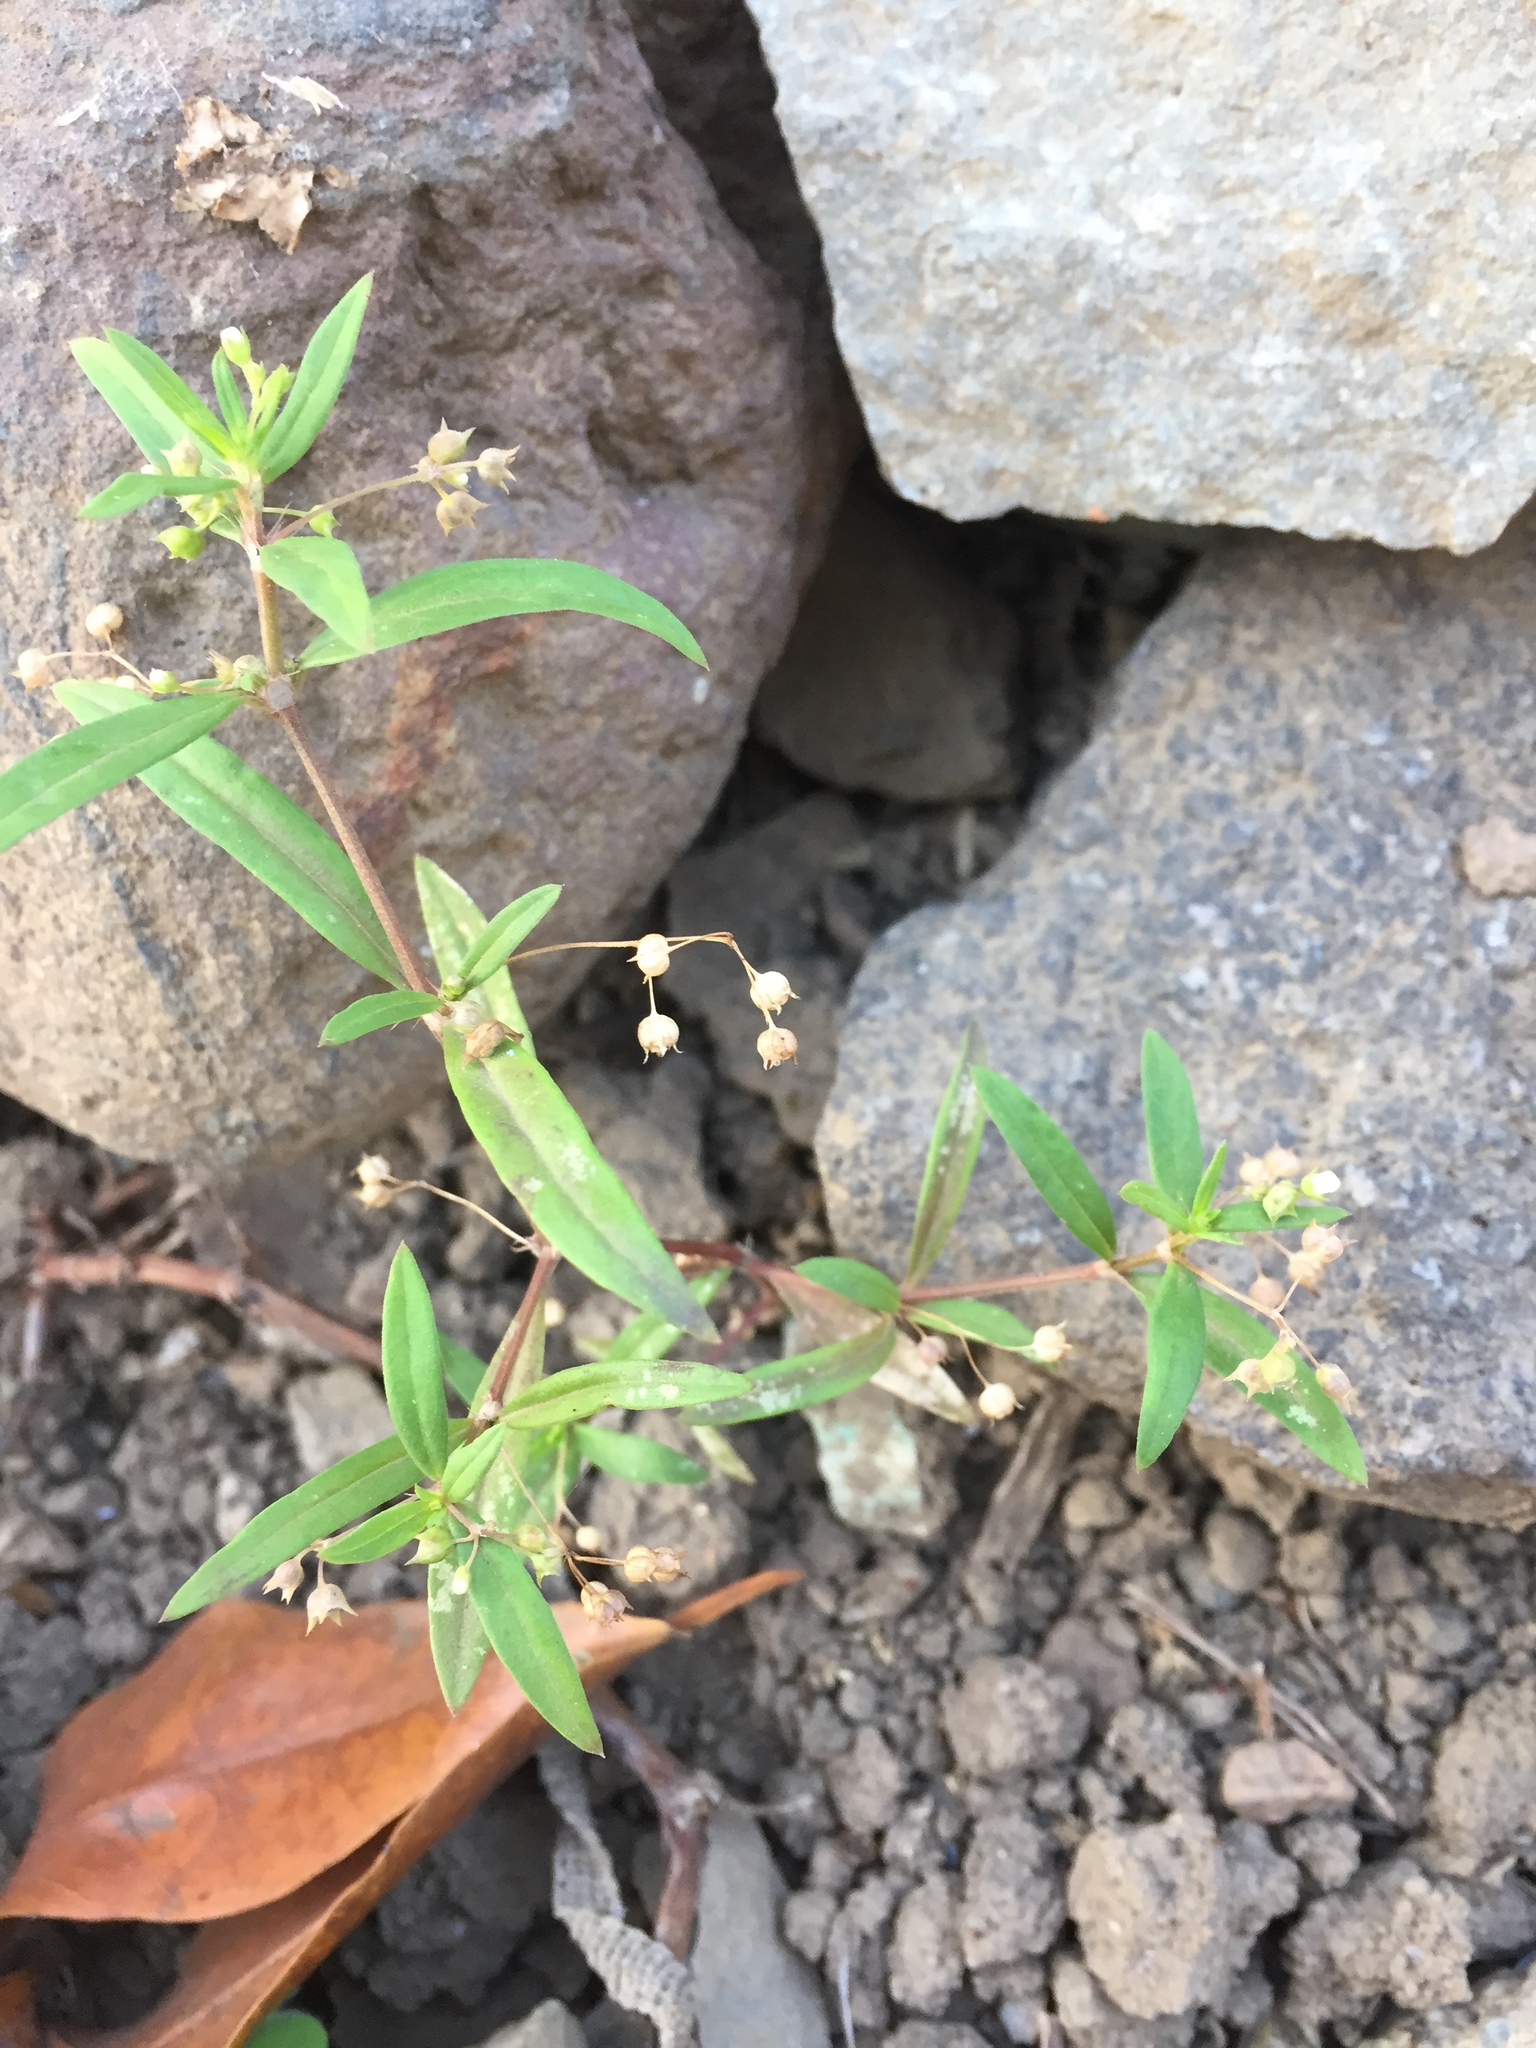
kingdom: Plantae
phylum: Tracheophyta
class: Magnoliopsida
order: Gentianales
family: Rubiaceae
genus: Oldenlandia
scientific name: Oldenlandia corymbosa
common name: Flat-top mille graines
